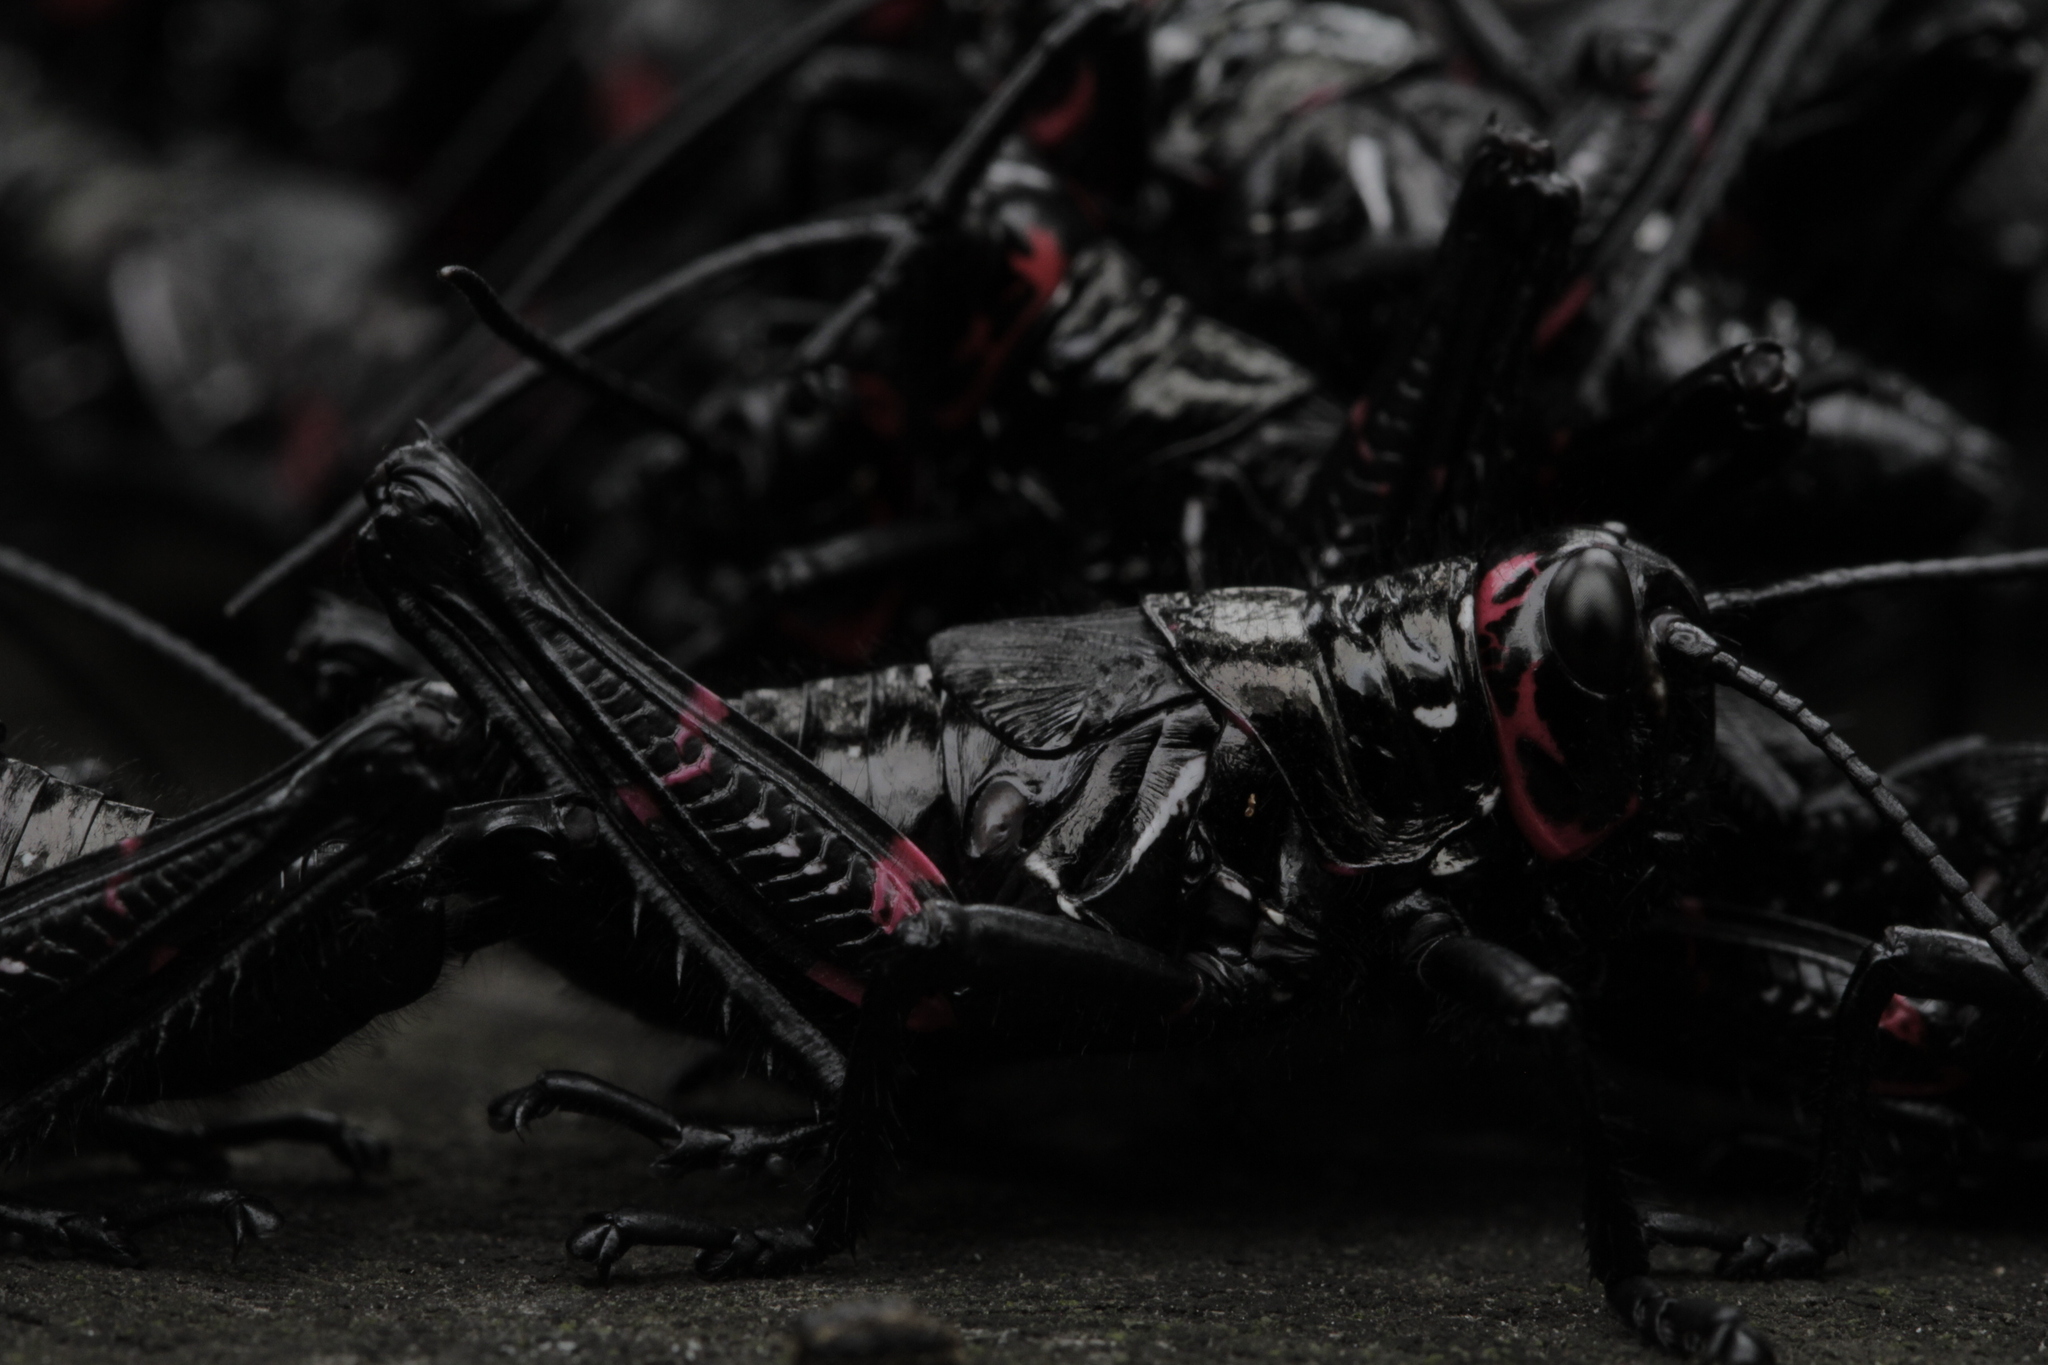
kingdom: Animalia
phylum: Arthropoda
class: Insecta
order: Orthoptera
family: Romaleidae
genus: Chromacris
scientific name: Chromacris speciosa
